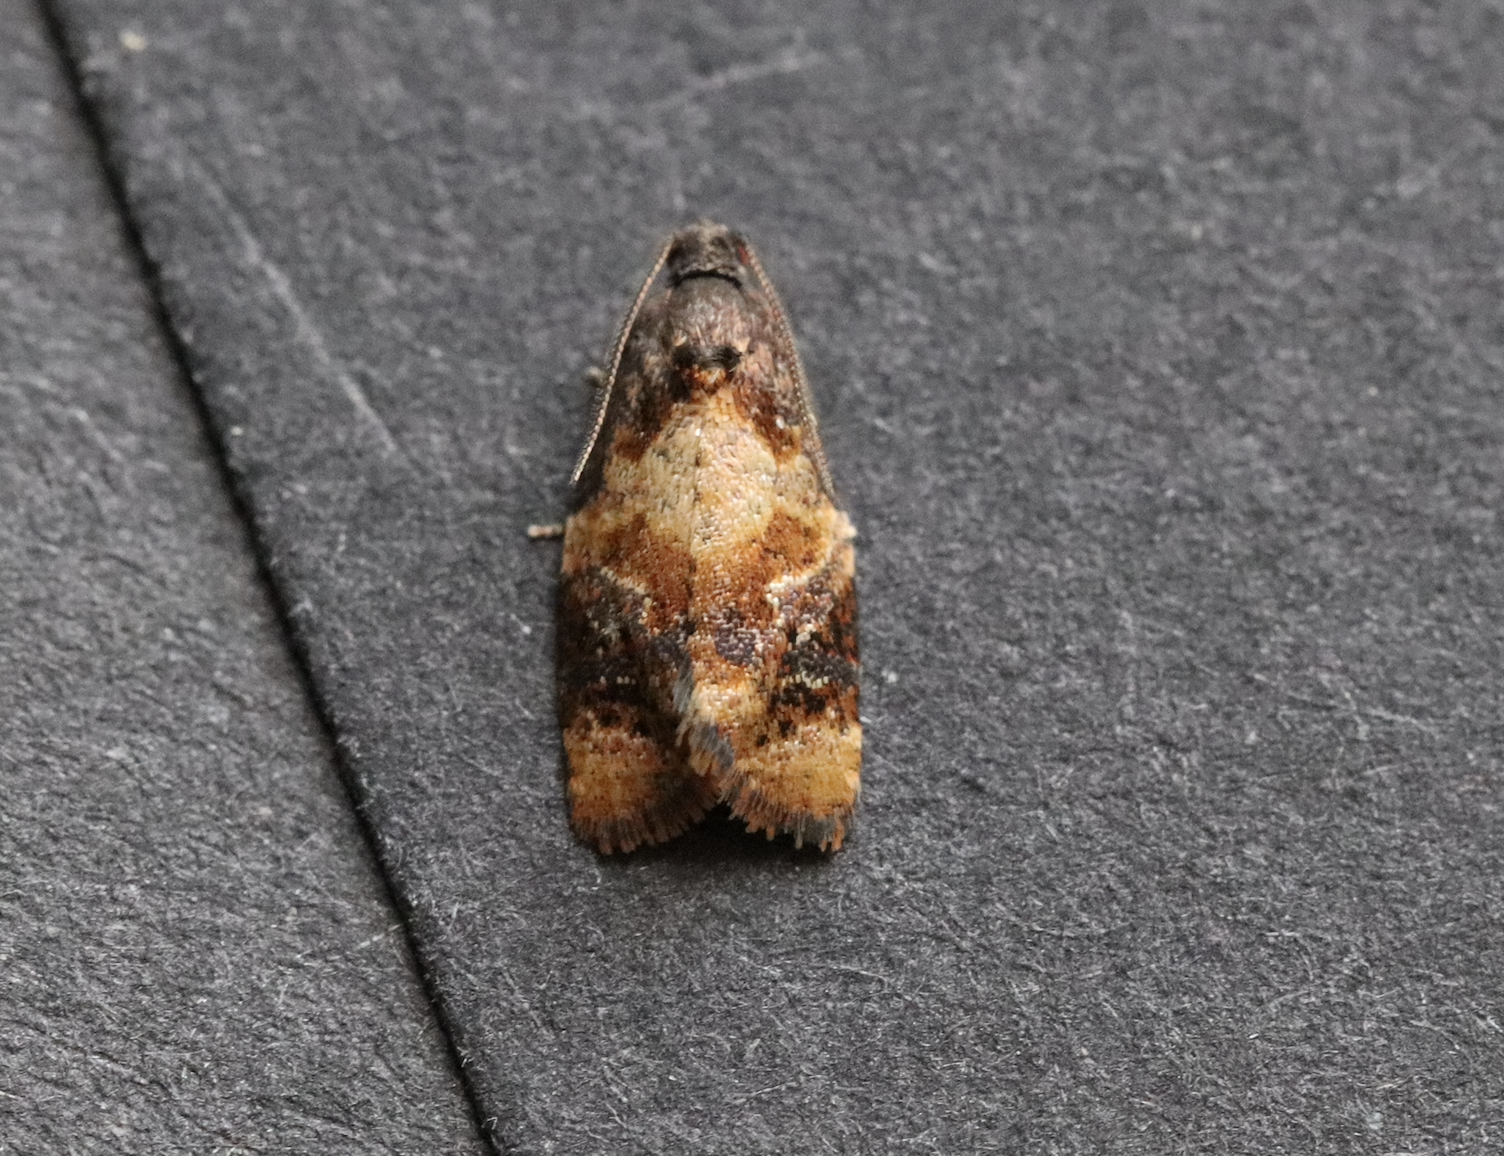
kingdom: Animalia
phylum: Arthropoda
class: Insecta
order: Lepidoptera
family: Tortricidae
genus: Ditula
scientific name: Ditula angustiorana
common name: Red-barred tortrix
